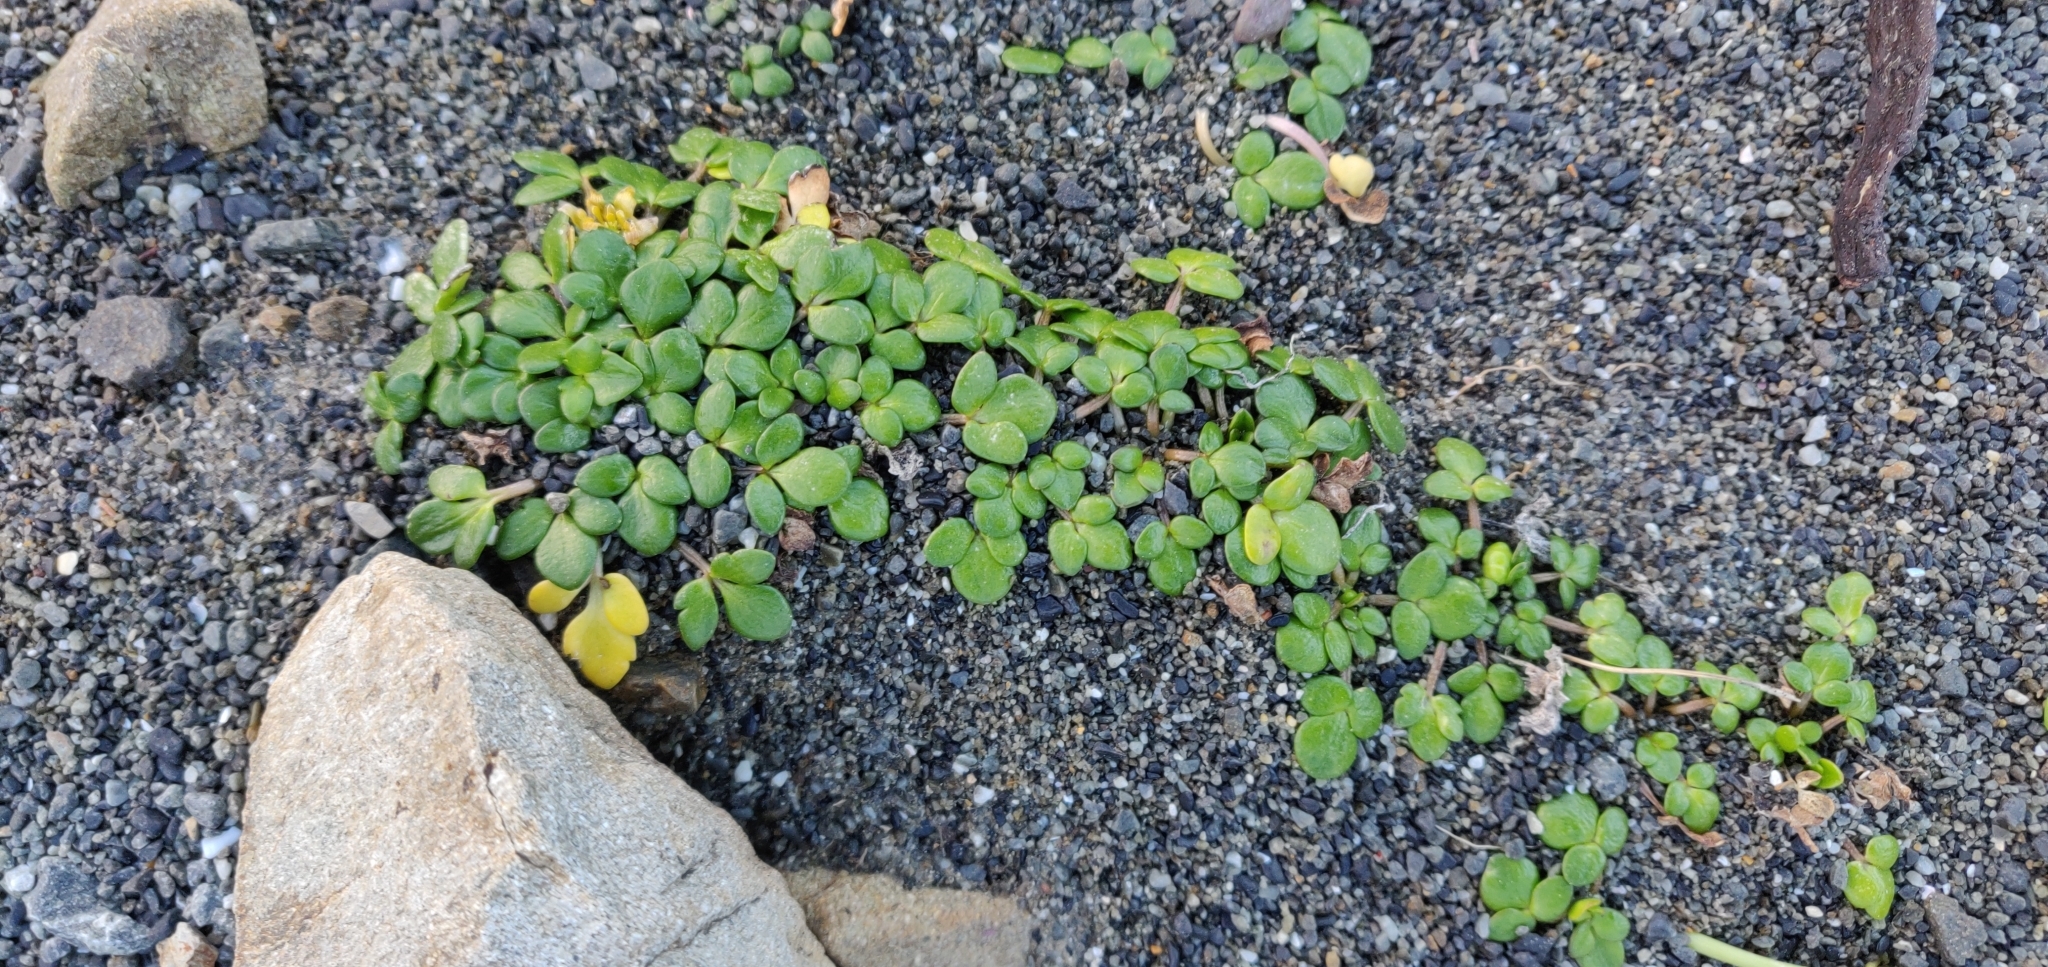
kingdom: Plantae
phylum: Tracheophyta
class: Magnoliopsida
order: Ranunculales
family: Ranunculaceae
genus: Ranunculus
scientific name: Ranunculus acaulis
